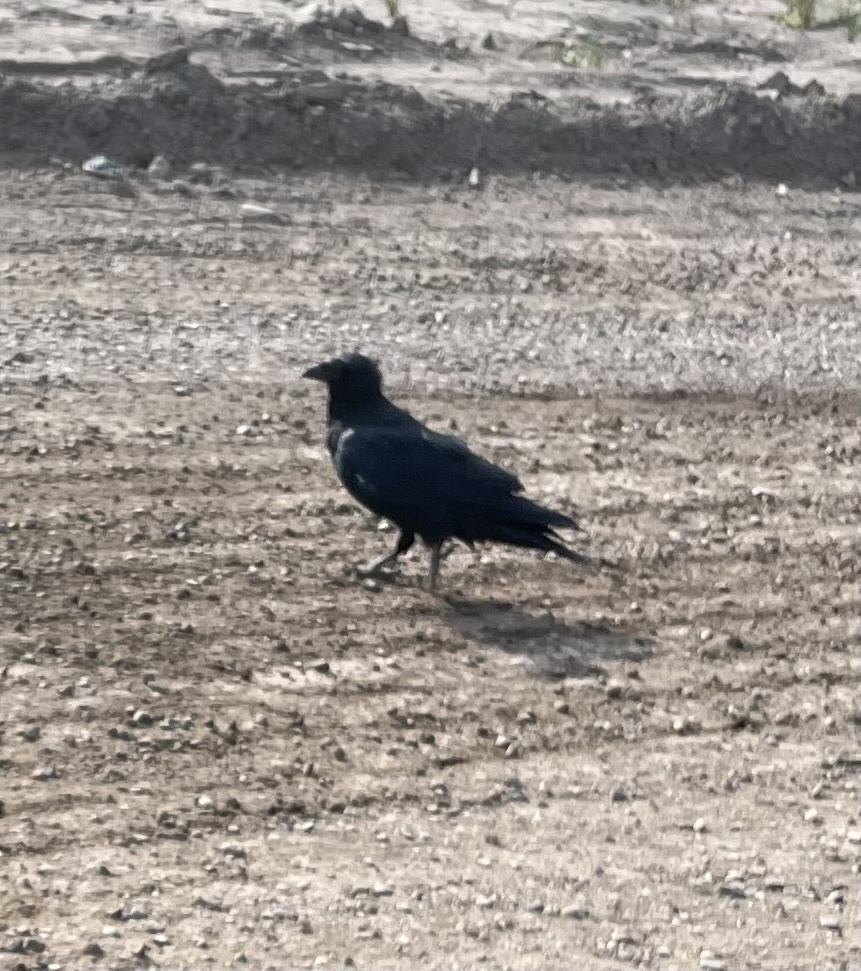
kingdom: Animalia
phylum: Chordata
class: Aves
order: Passeriformes
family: Corvidae
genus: Corvus
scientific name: Corvus corax
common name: Common raven
